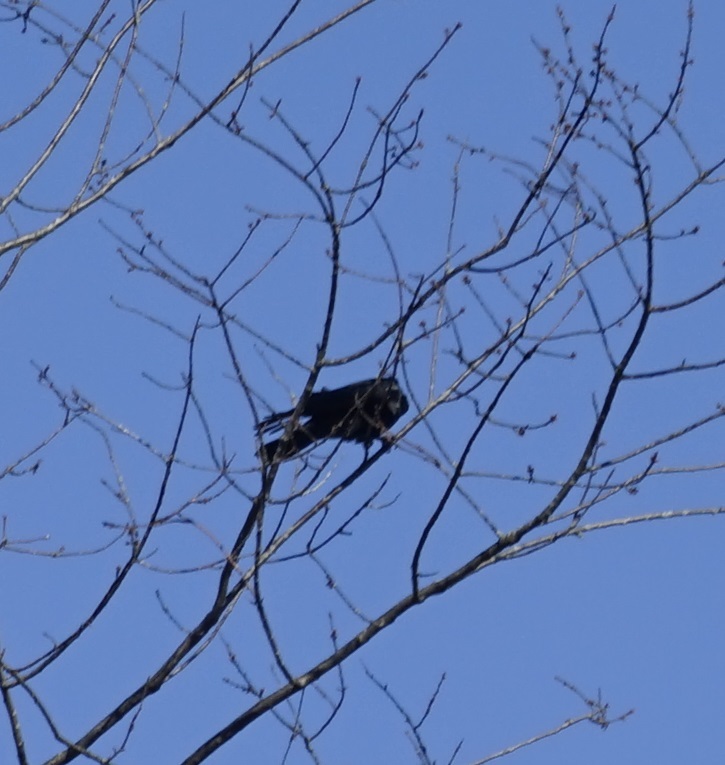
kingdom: Animalia
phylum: Chordata
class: Aves
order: Passeriformes
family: Corvidae
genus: Corvus
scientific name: Corvus corone
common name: Carrion crow
